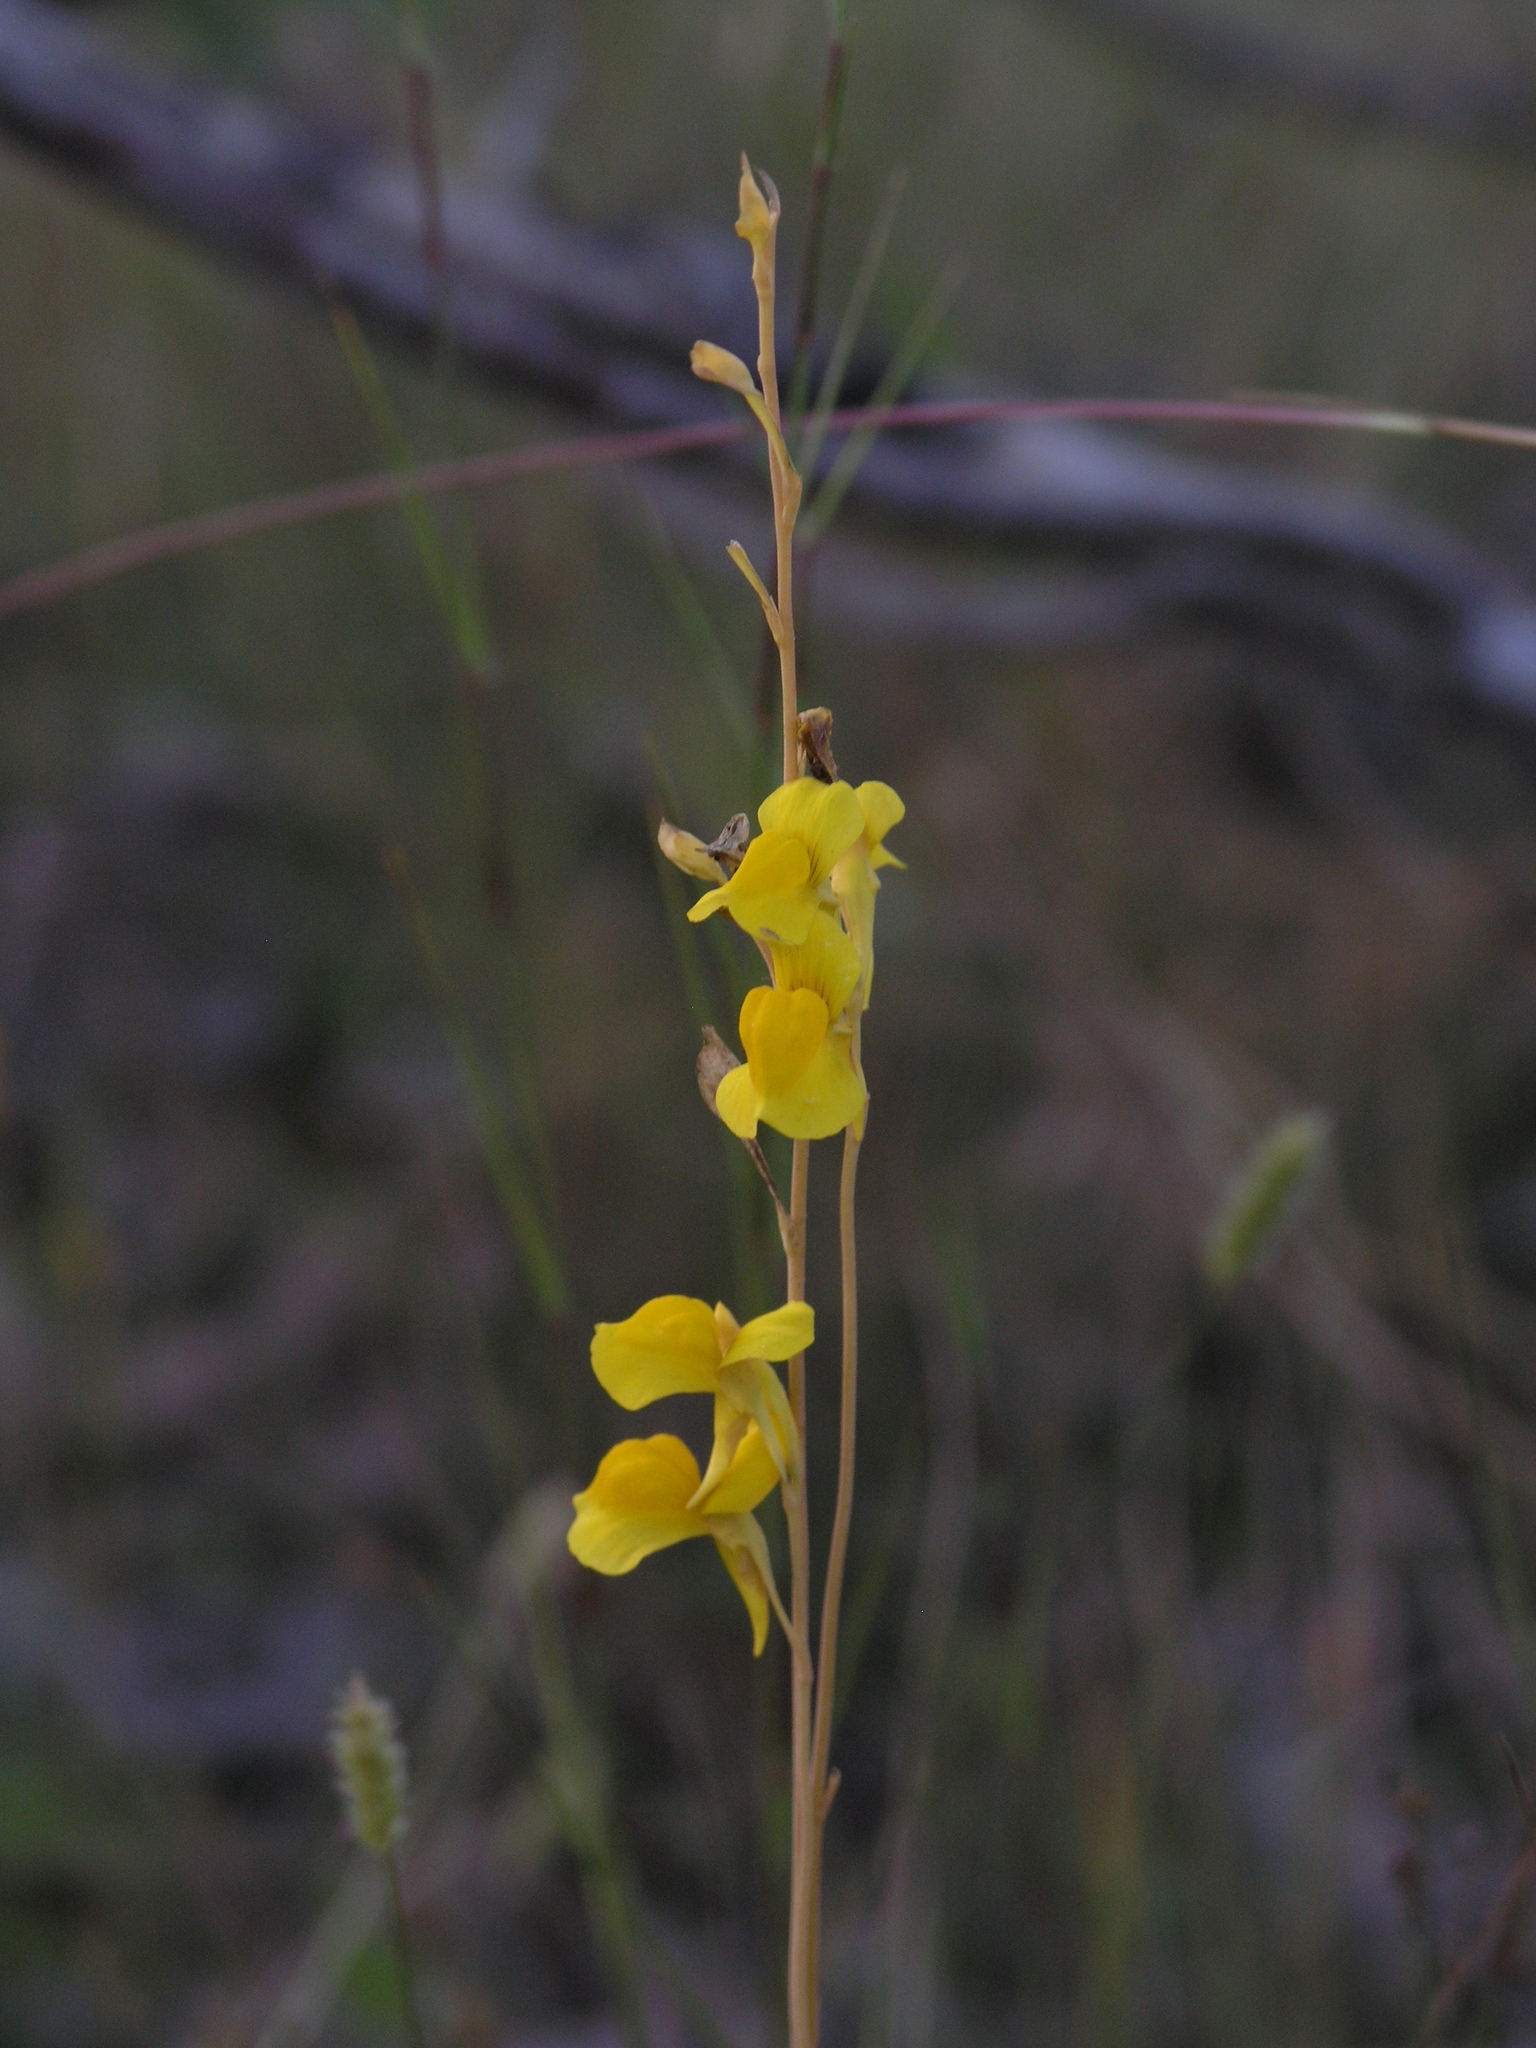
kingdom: Plantae
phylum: Tracheophyta
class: Magnoliopsida
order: Lamiales
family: Lentibulariaceae
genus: Utricularia
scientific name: Utricularia odorata
